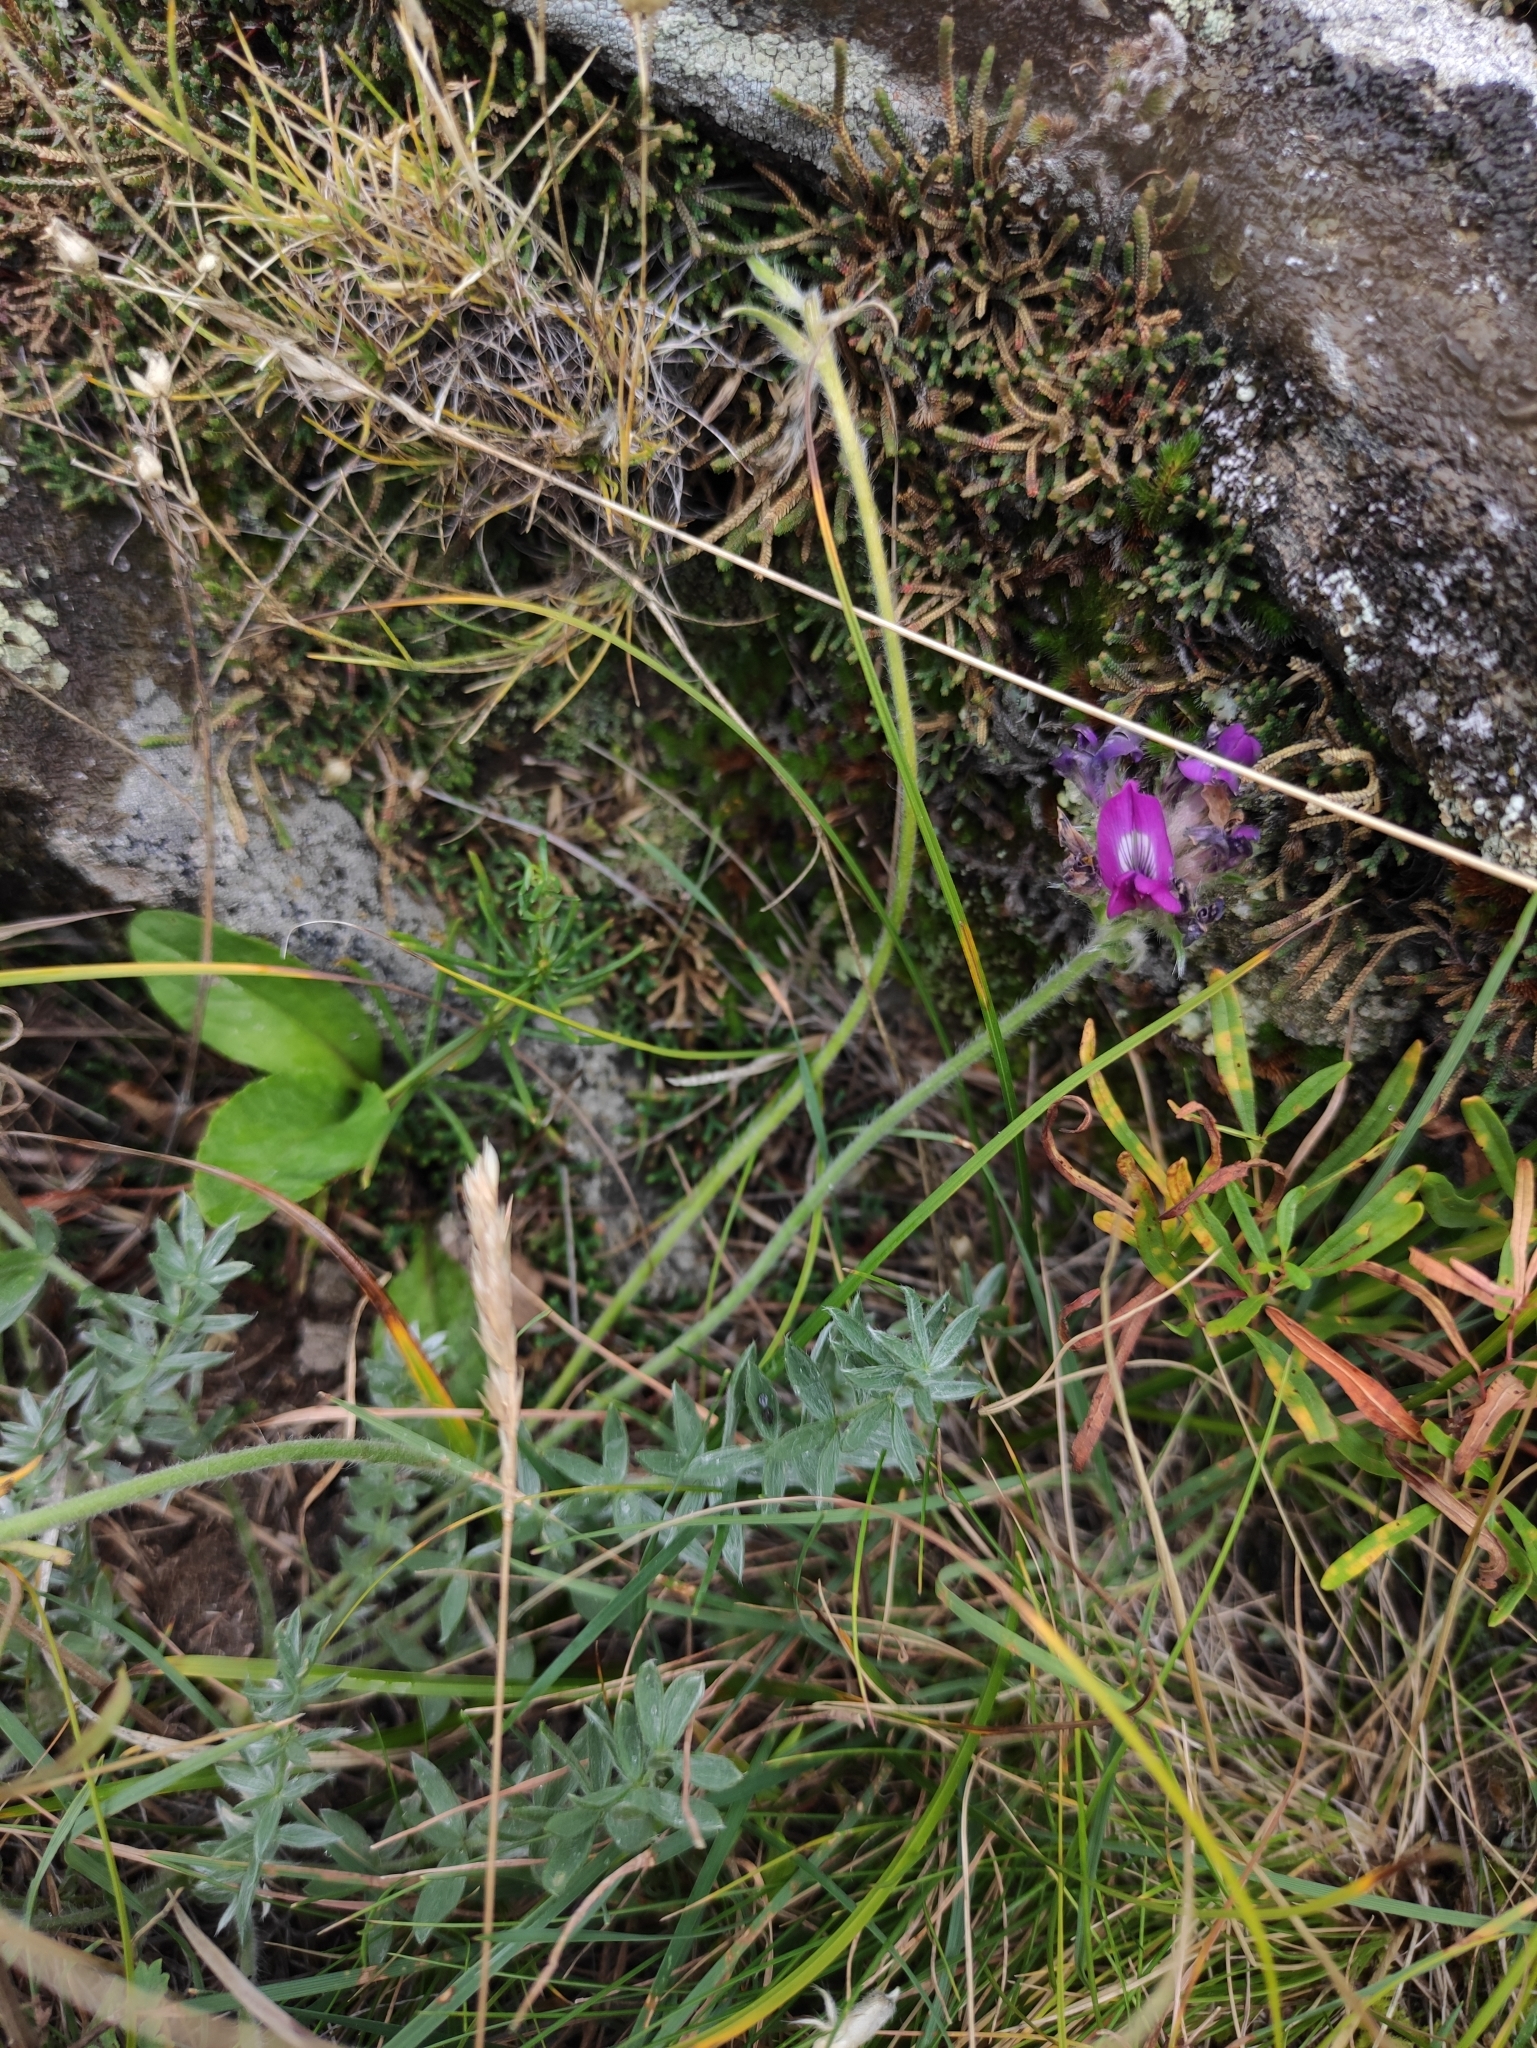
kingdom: Plantae
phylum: Tracheophyta
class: Magnoliopsida
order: Fabales
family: Fabaceae
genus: Oxytropis
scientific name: Oxytropis turczaninovii
